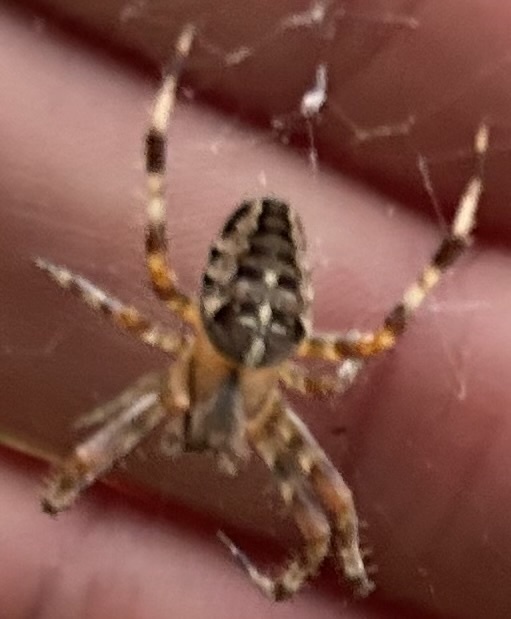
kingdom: Animalia
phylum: Arthropoda
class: Arachnida
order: Araneae
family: Araneidae
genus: Araneus
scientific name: Araneus diadematus
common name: Cross orbweaver
